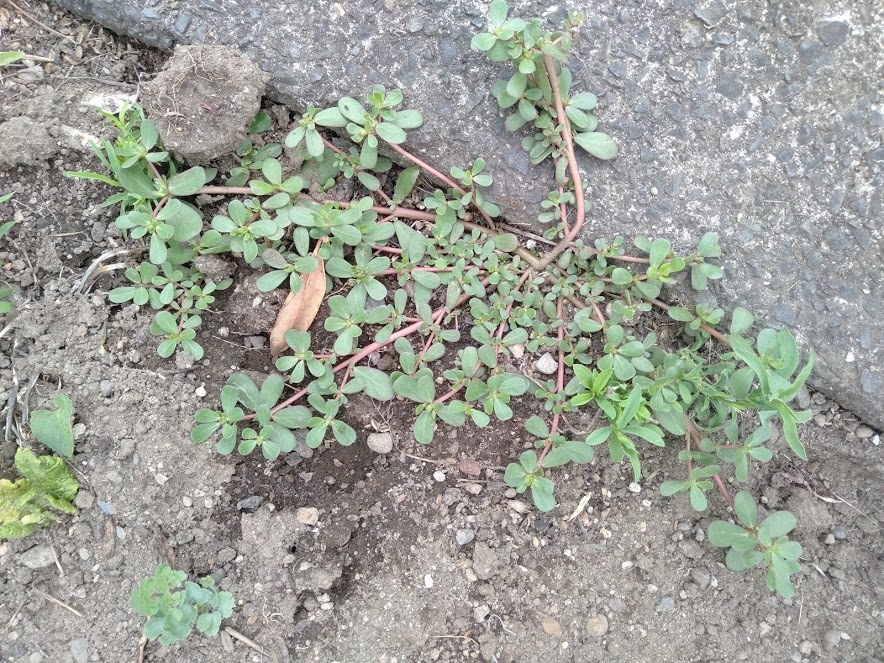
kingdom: Plantae
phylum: Tracheophyta
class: Magnoliopsida
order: Caryophyllales
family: Portulacaceae
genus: Portulaca
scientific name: Portulaca oleracea
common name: Common purslane
